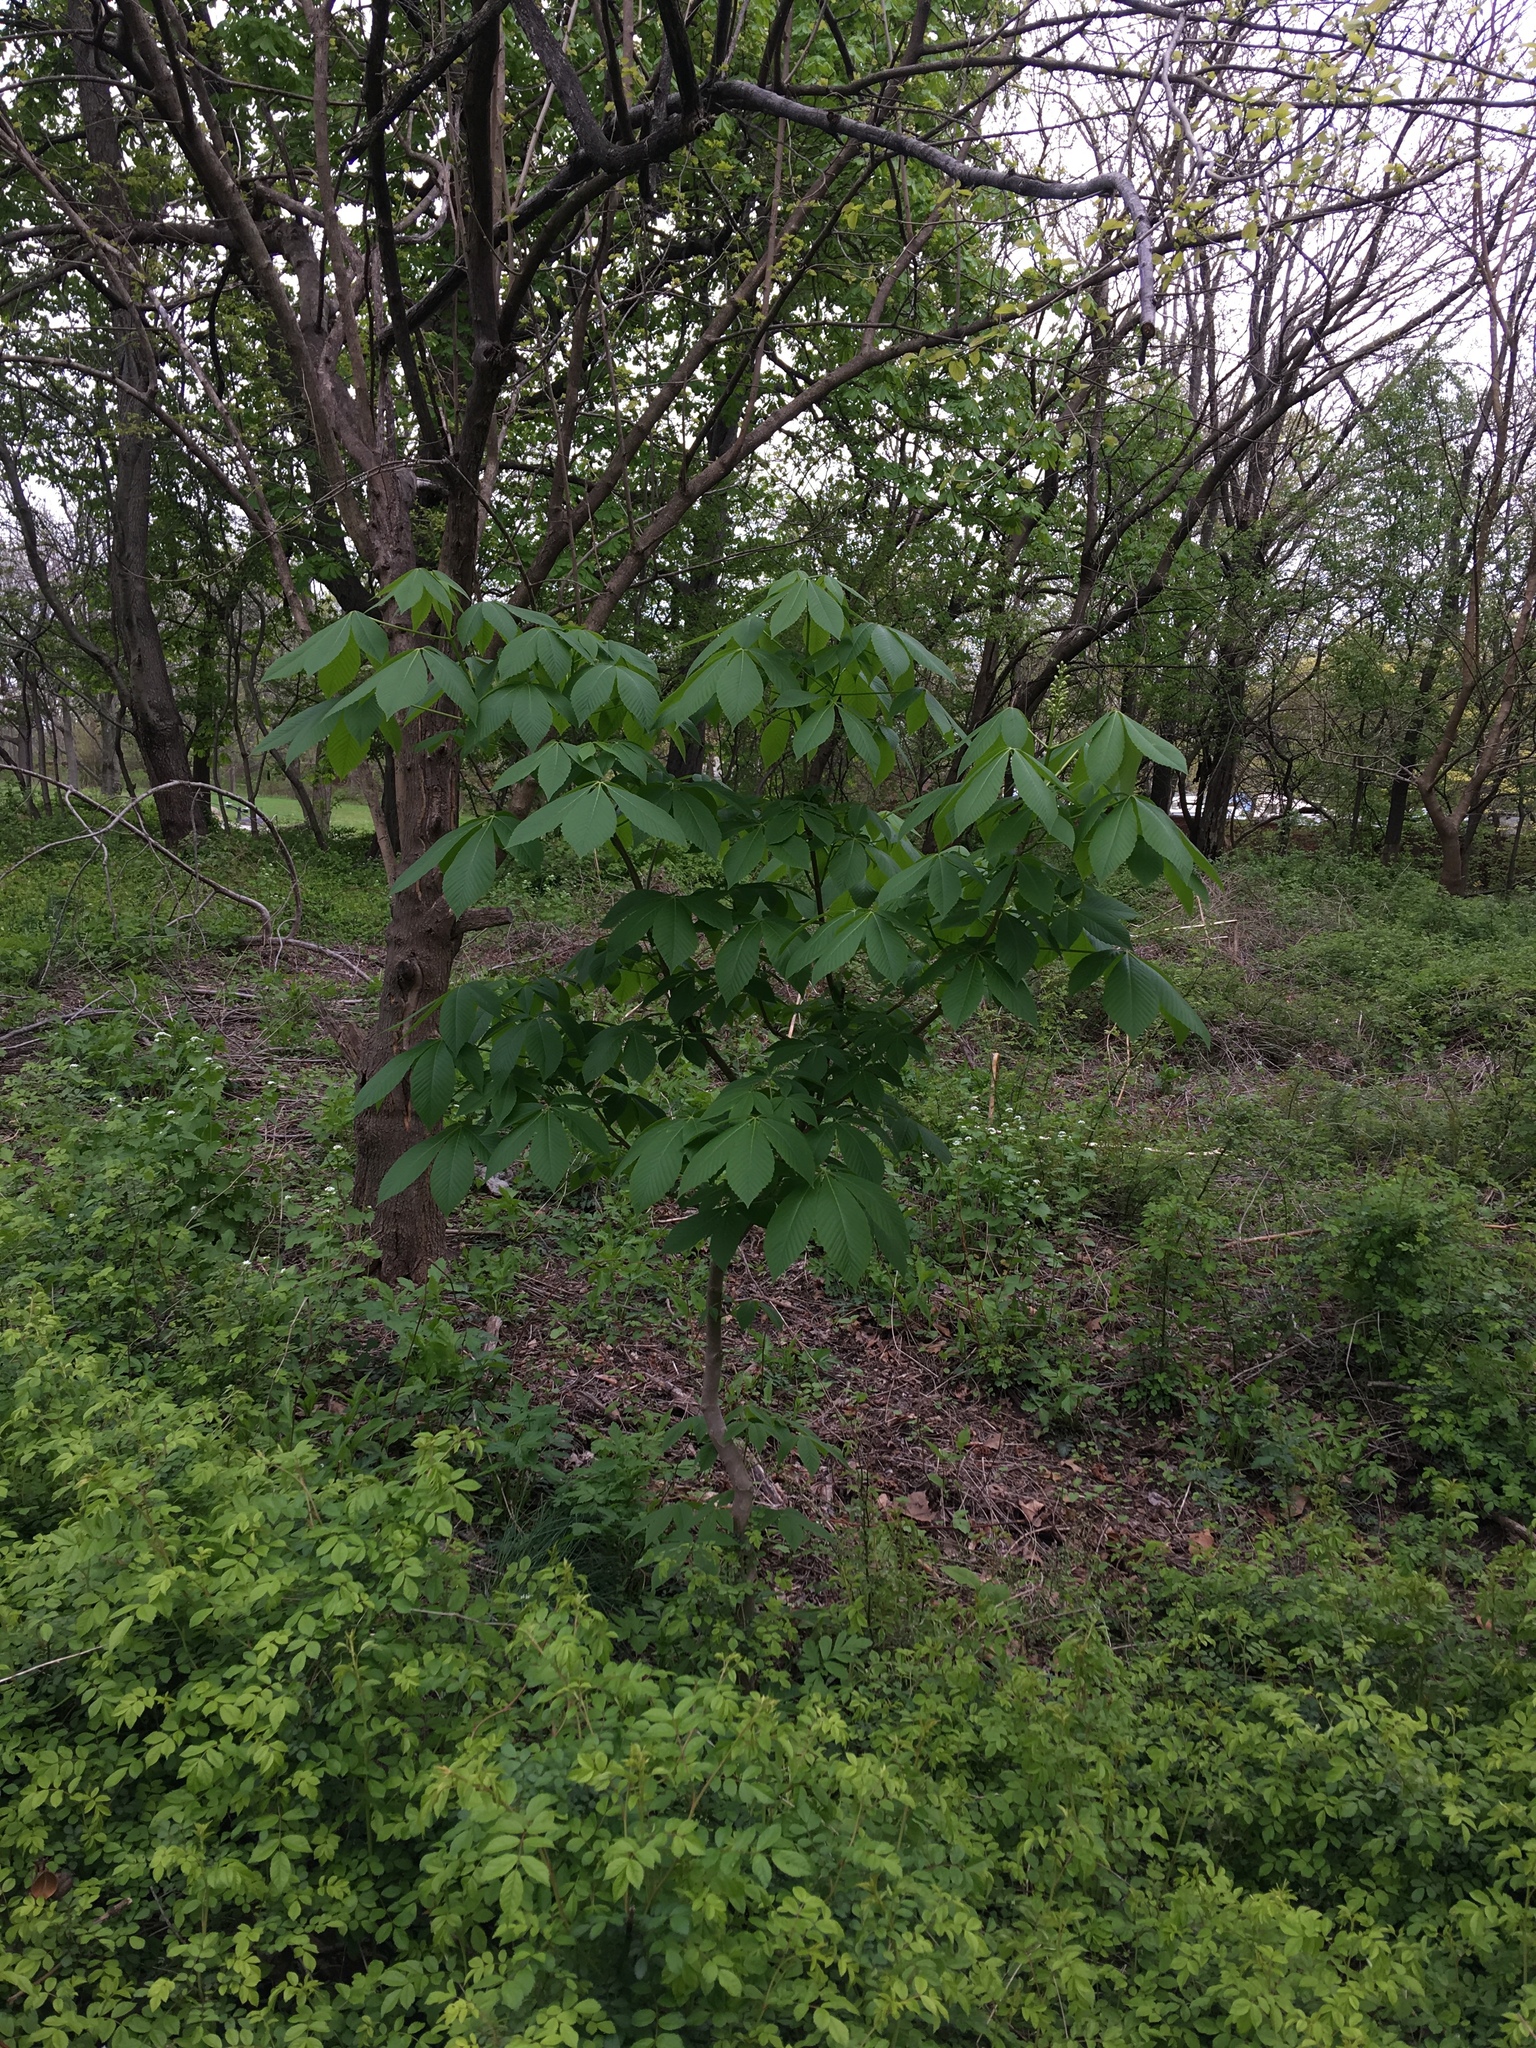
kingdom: Plantae
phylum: Tracheophyta
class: Magnoliopsida
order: Sapindales
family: Sapindaceae
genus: Aesculus
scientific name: Aesculus glabra
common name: Ohio buckeye
